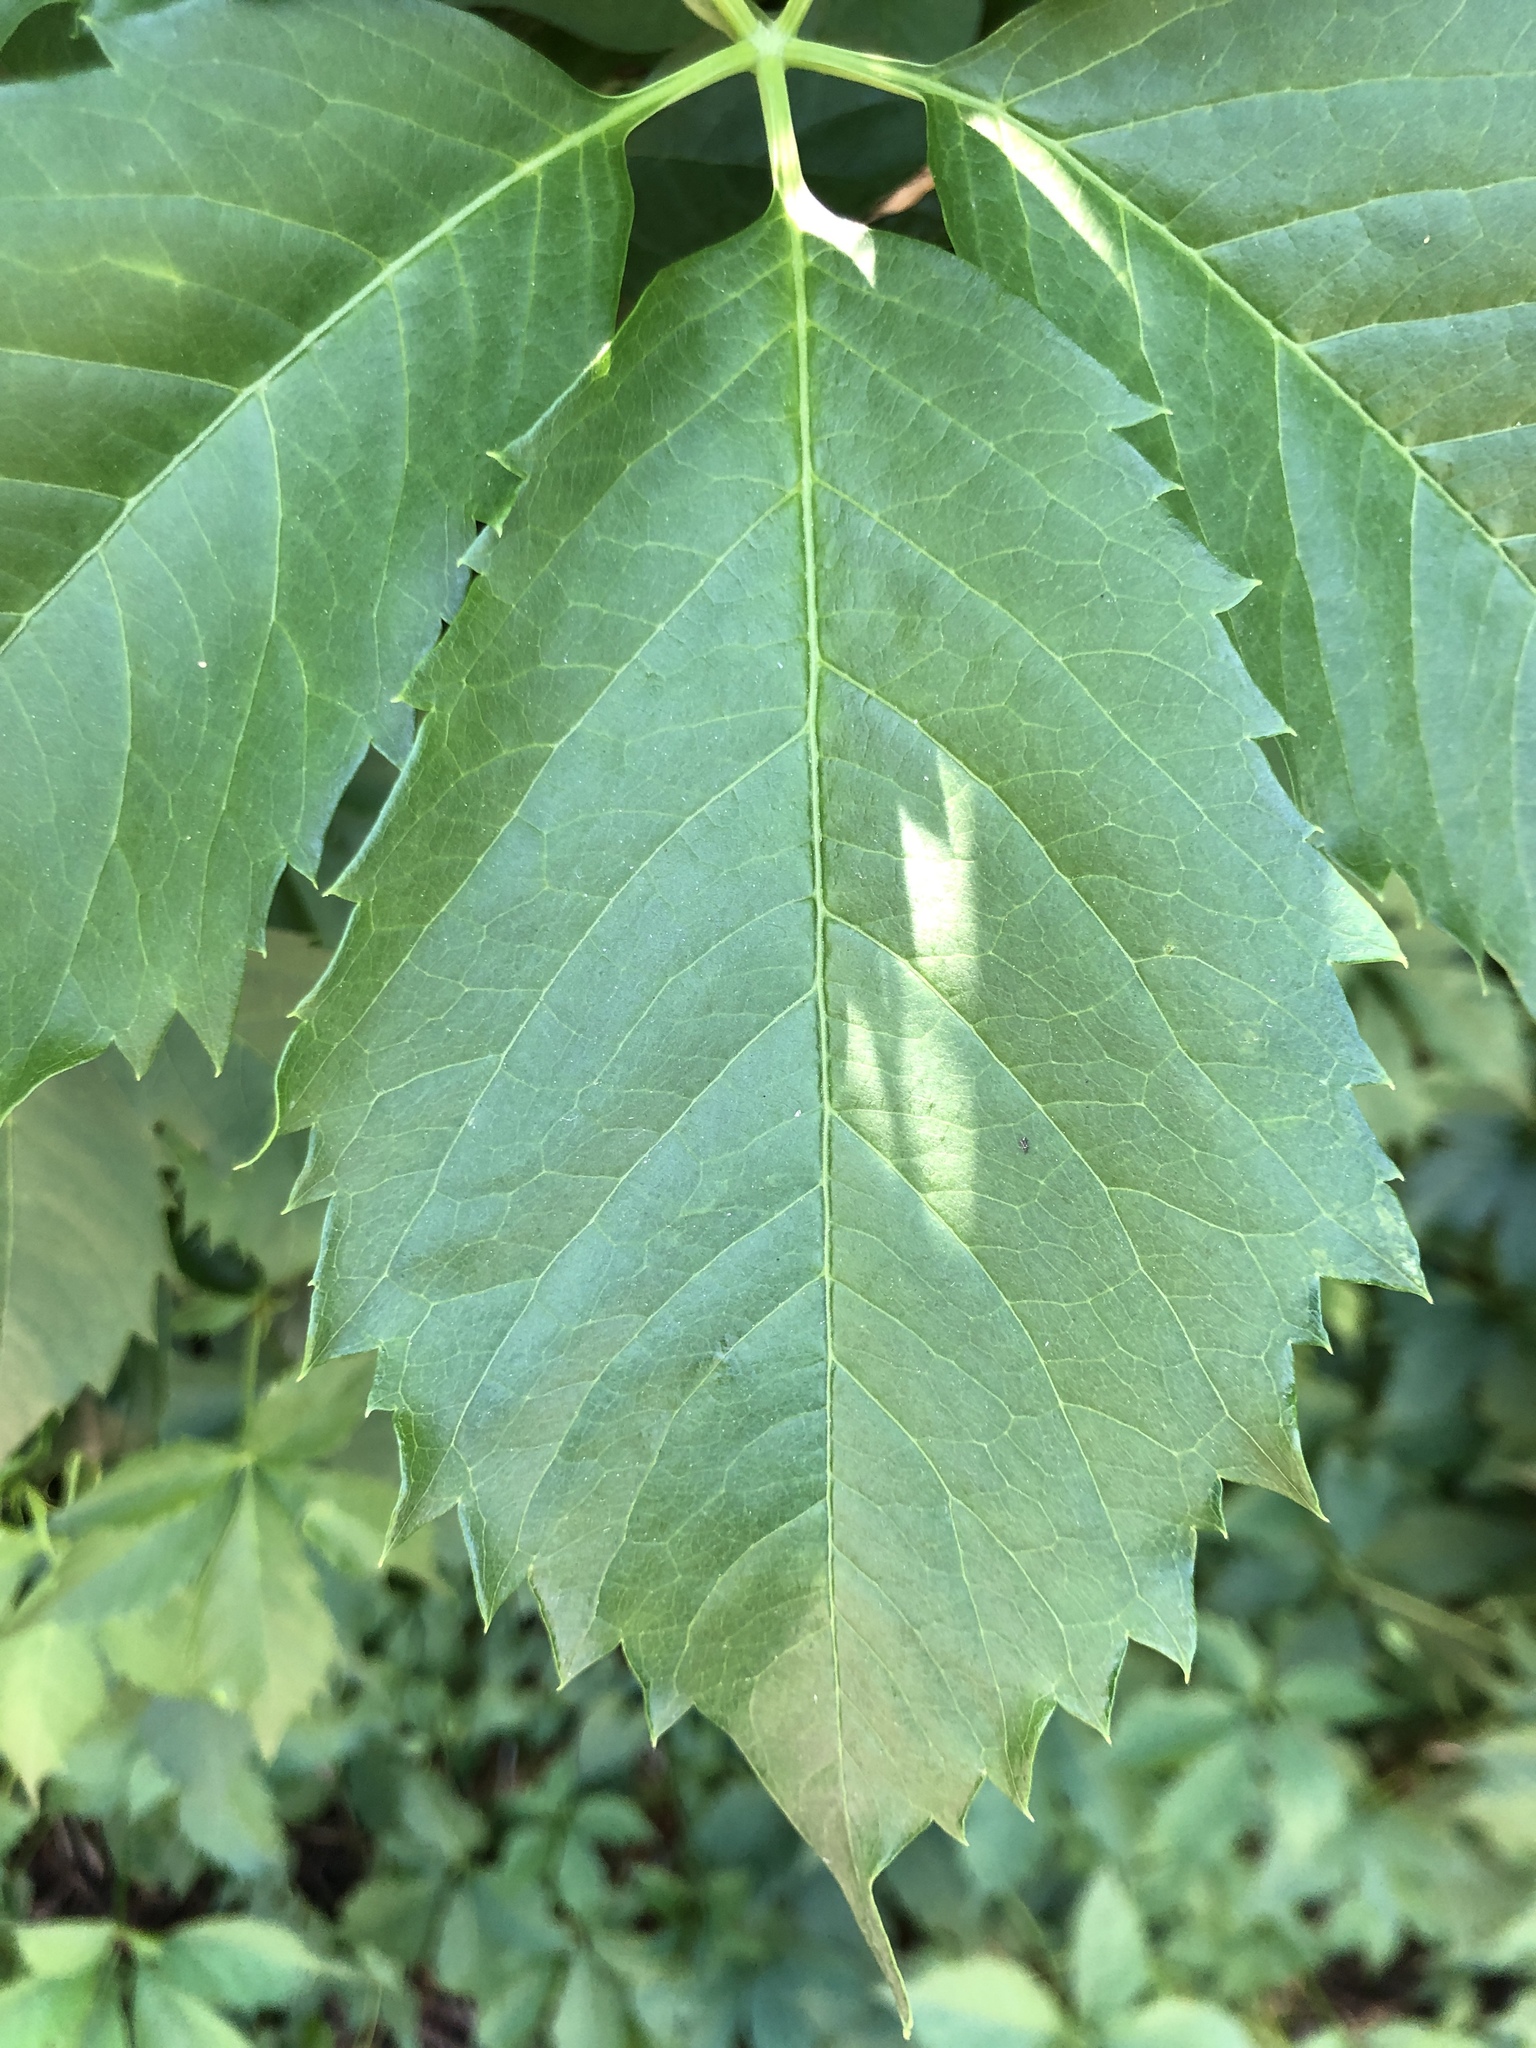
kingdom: Plantae
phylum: Tracheophyta
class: Magnoliopsida
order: Vitales
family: Vitaceae
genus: Parthenocissus
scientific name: Parthenocissus quinquefolia
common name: Virginia-creeper
